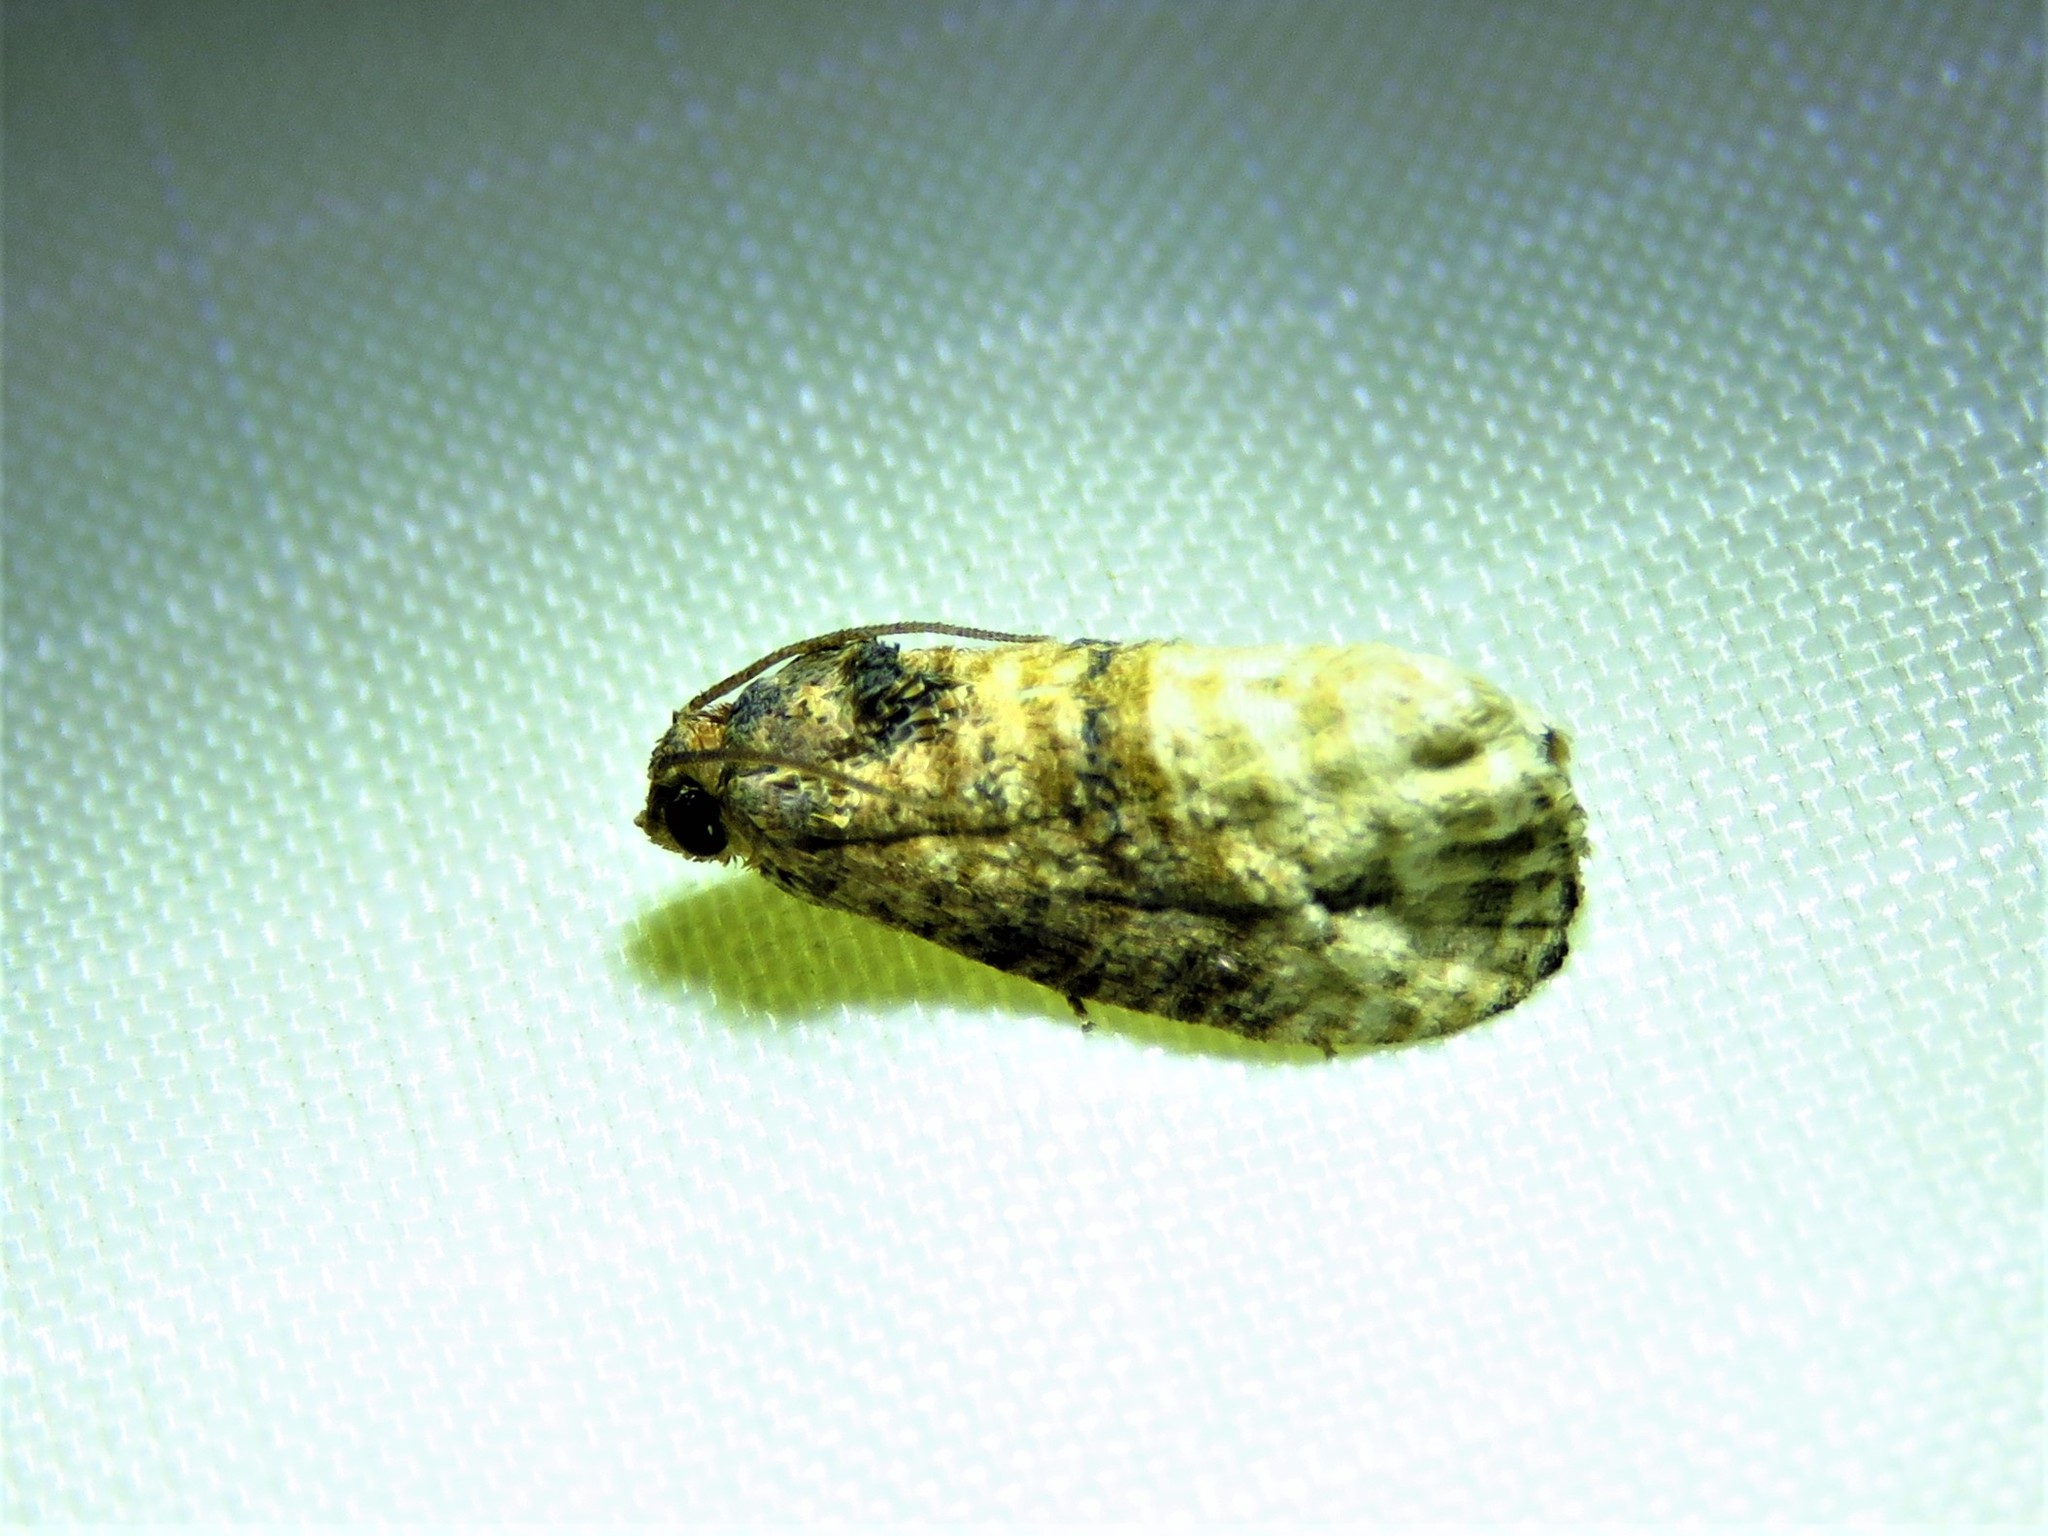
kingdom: Animalia
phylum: Arthropoda
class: Insecta
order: Lepidoptera
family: Tortricidae
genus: Ecdytolopha
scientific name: Ecdytolopha mana
